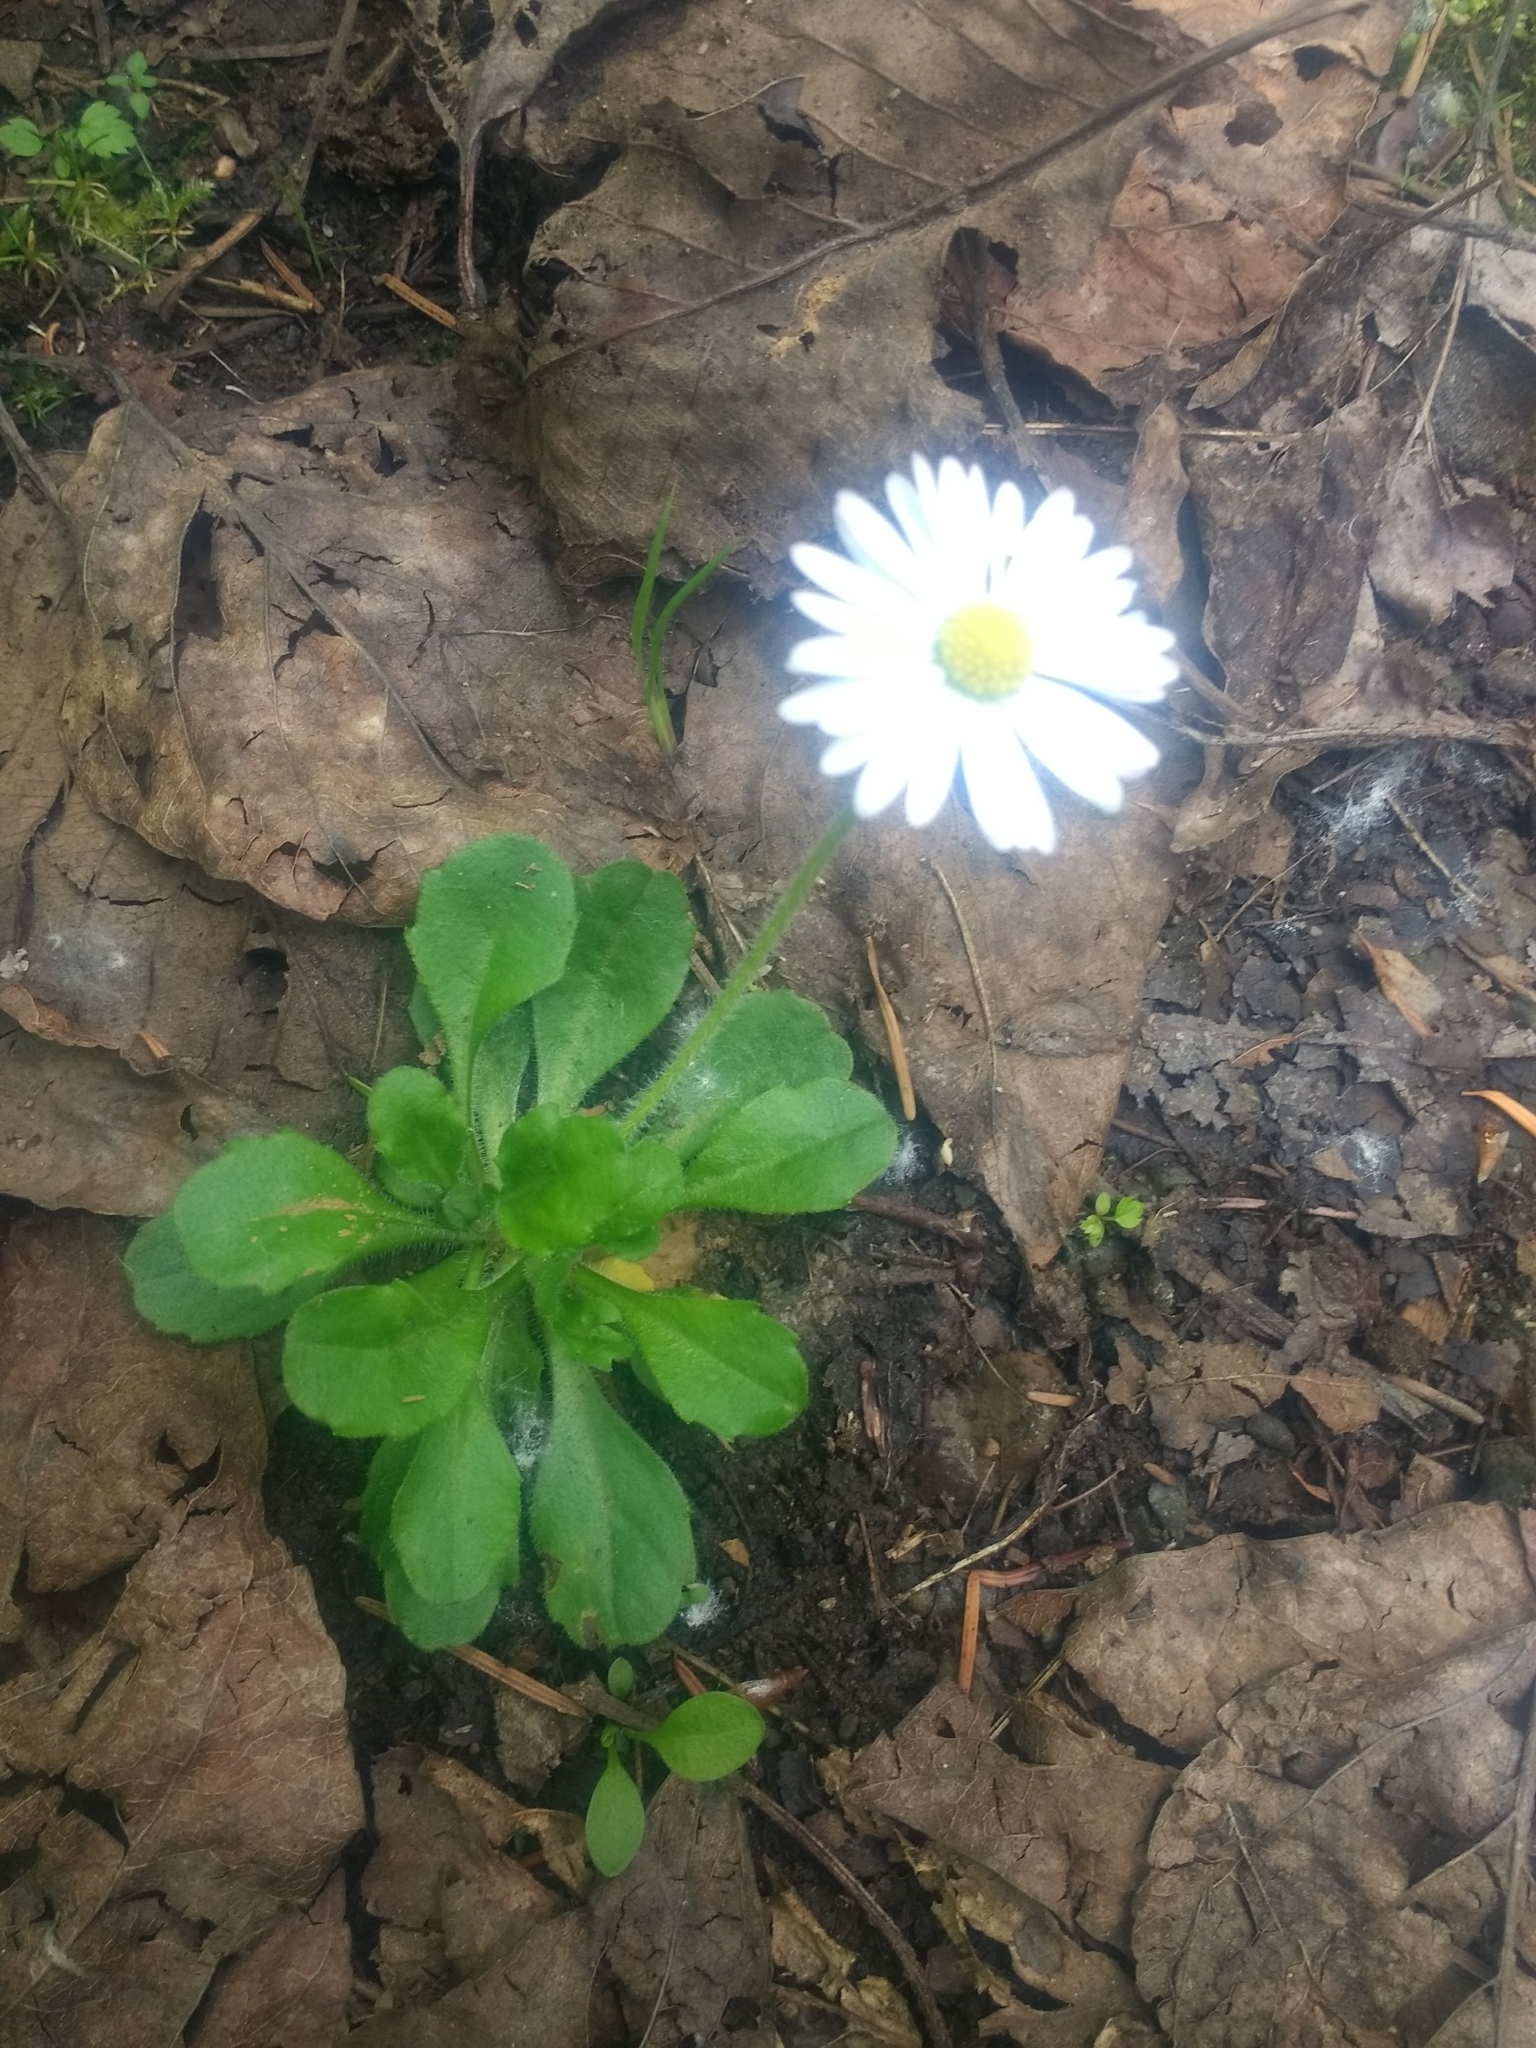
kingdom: Plantae
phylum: Tracheophyta
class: Magnoliopsida
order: Asterales
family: Asteraceae
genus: Bellis
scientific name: Bellis perennis
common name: Lawndaisy
